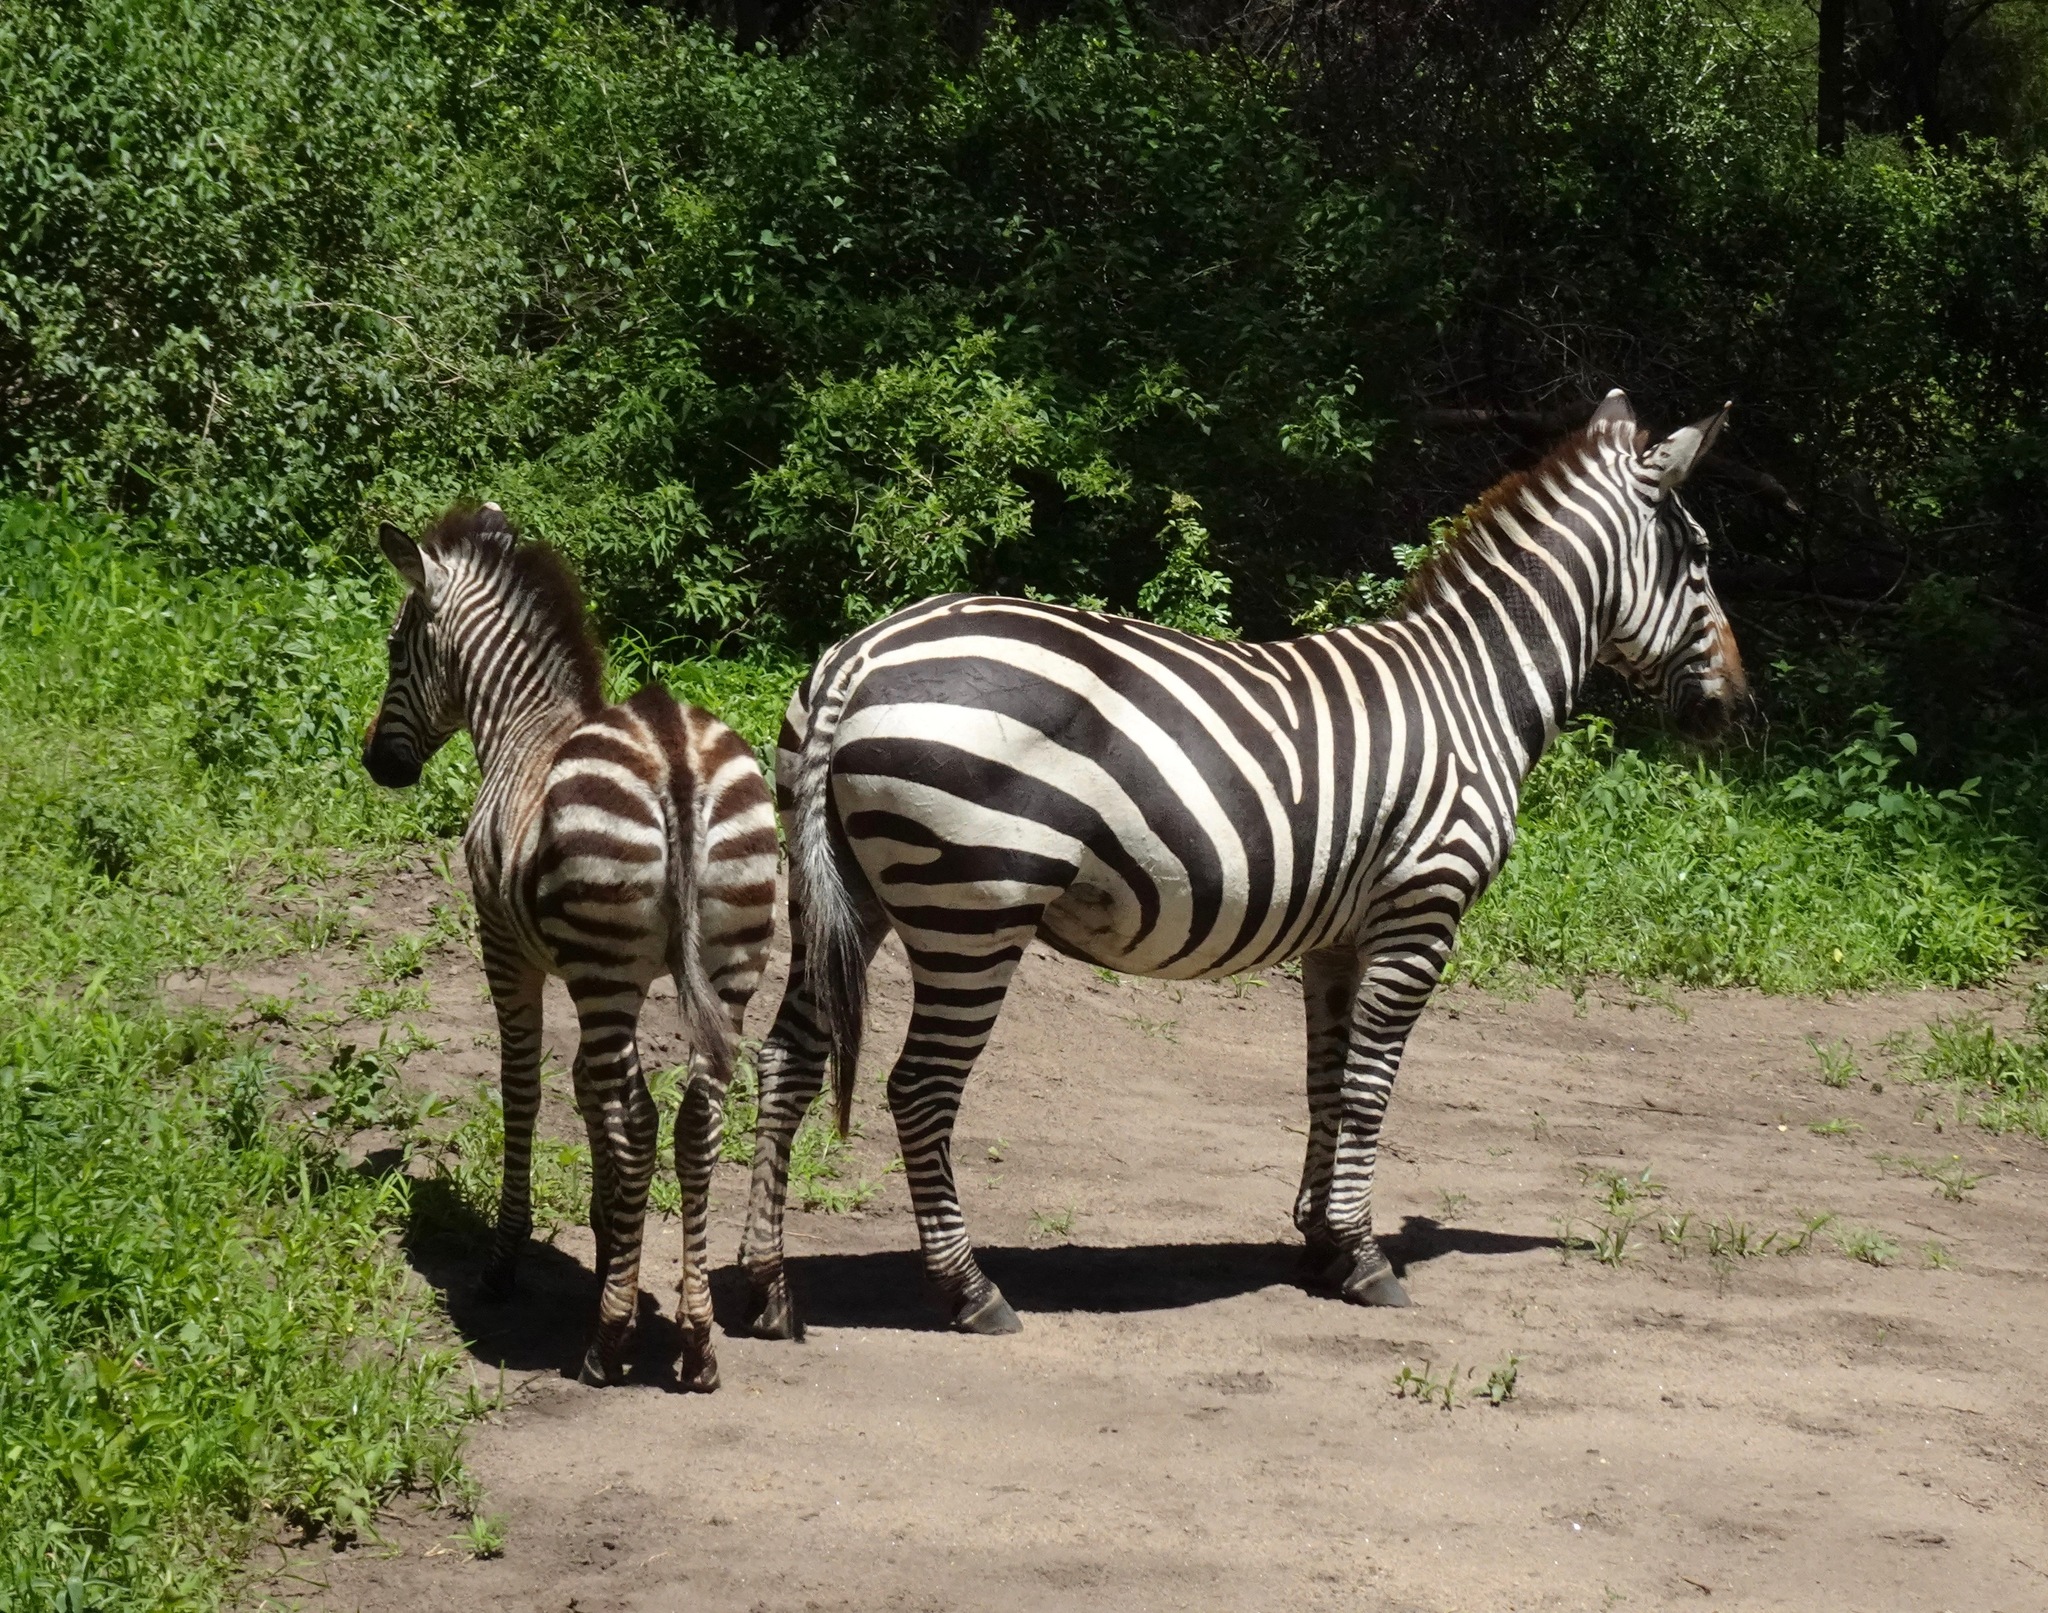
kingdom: Animalia
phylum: Chordata
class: Mammalia
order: Perissodactyla
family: Equidae
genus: Equus
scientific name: Equus quagga
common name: Plains zebra
